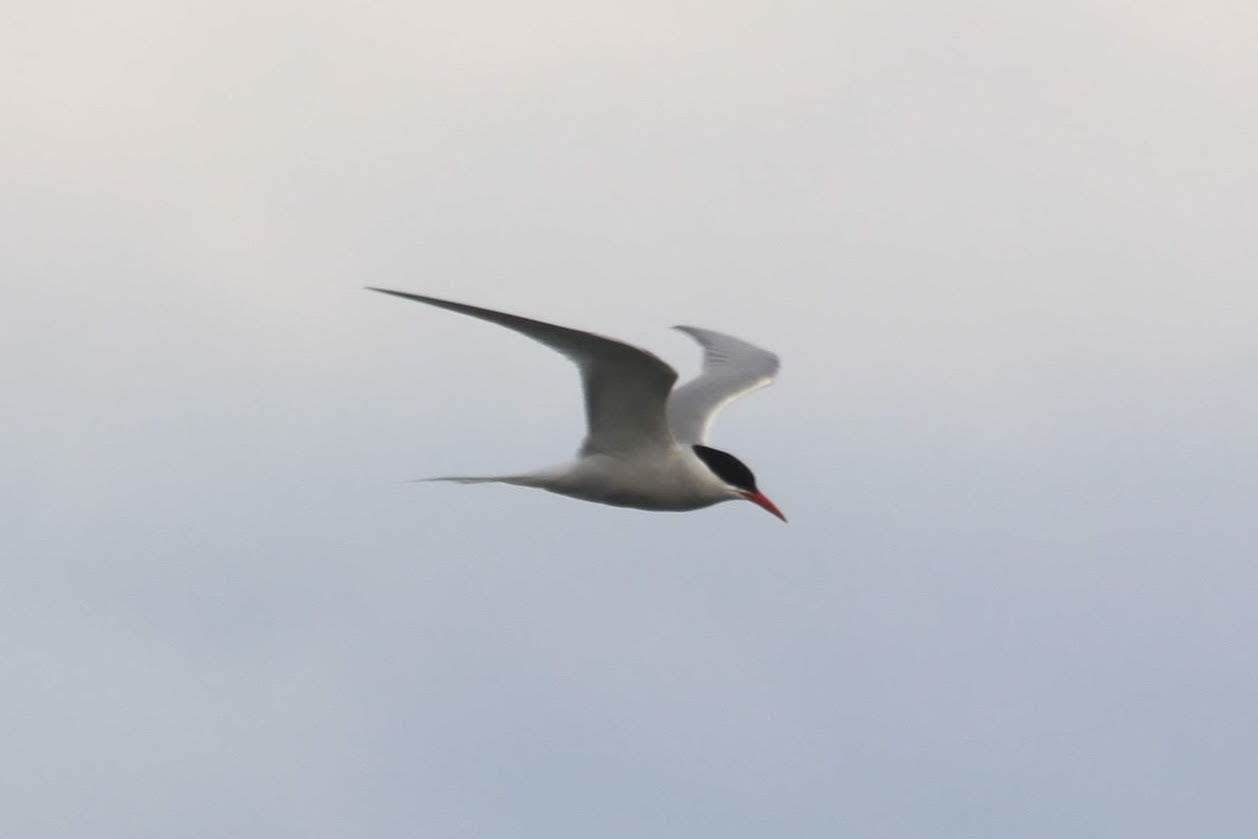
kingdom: Animalia
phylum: Chordata
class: Aves
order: Charadriiformes
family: Laridae
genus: Sterna
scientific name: Sterna hirundinacea
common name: South american tern
